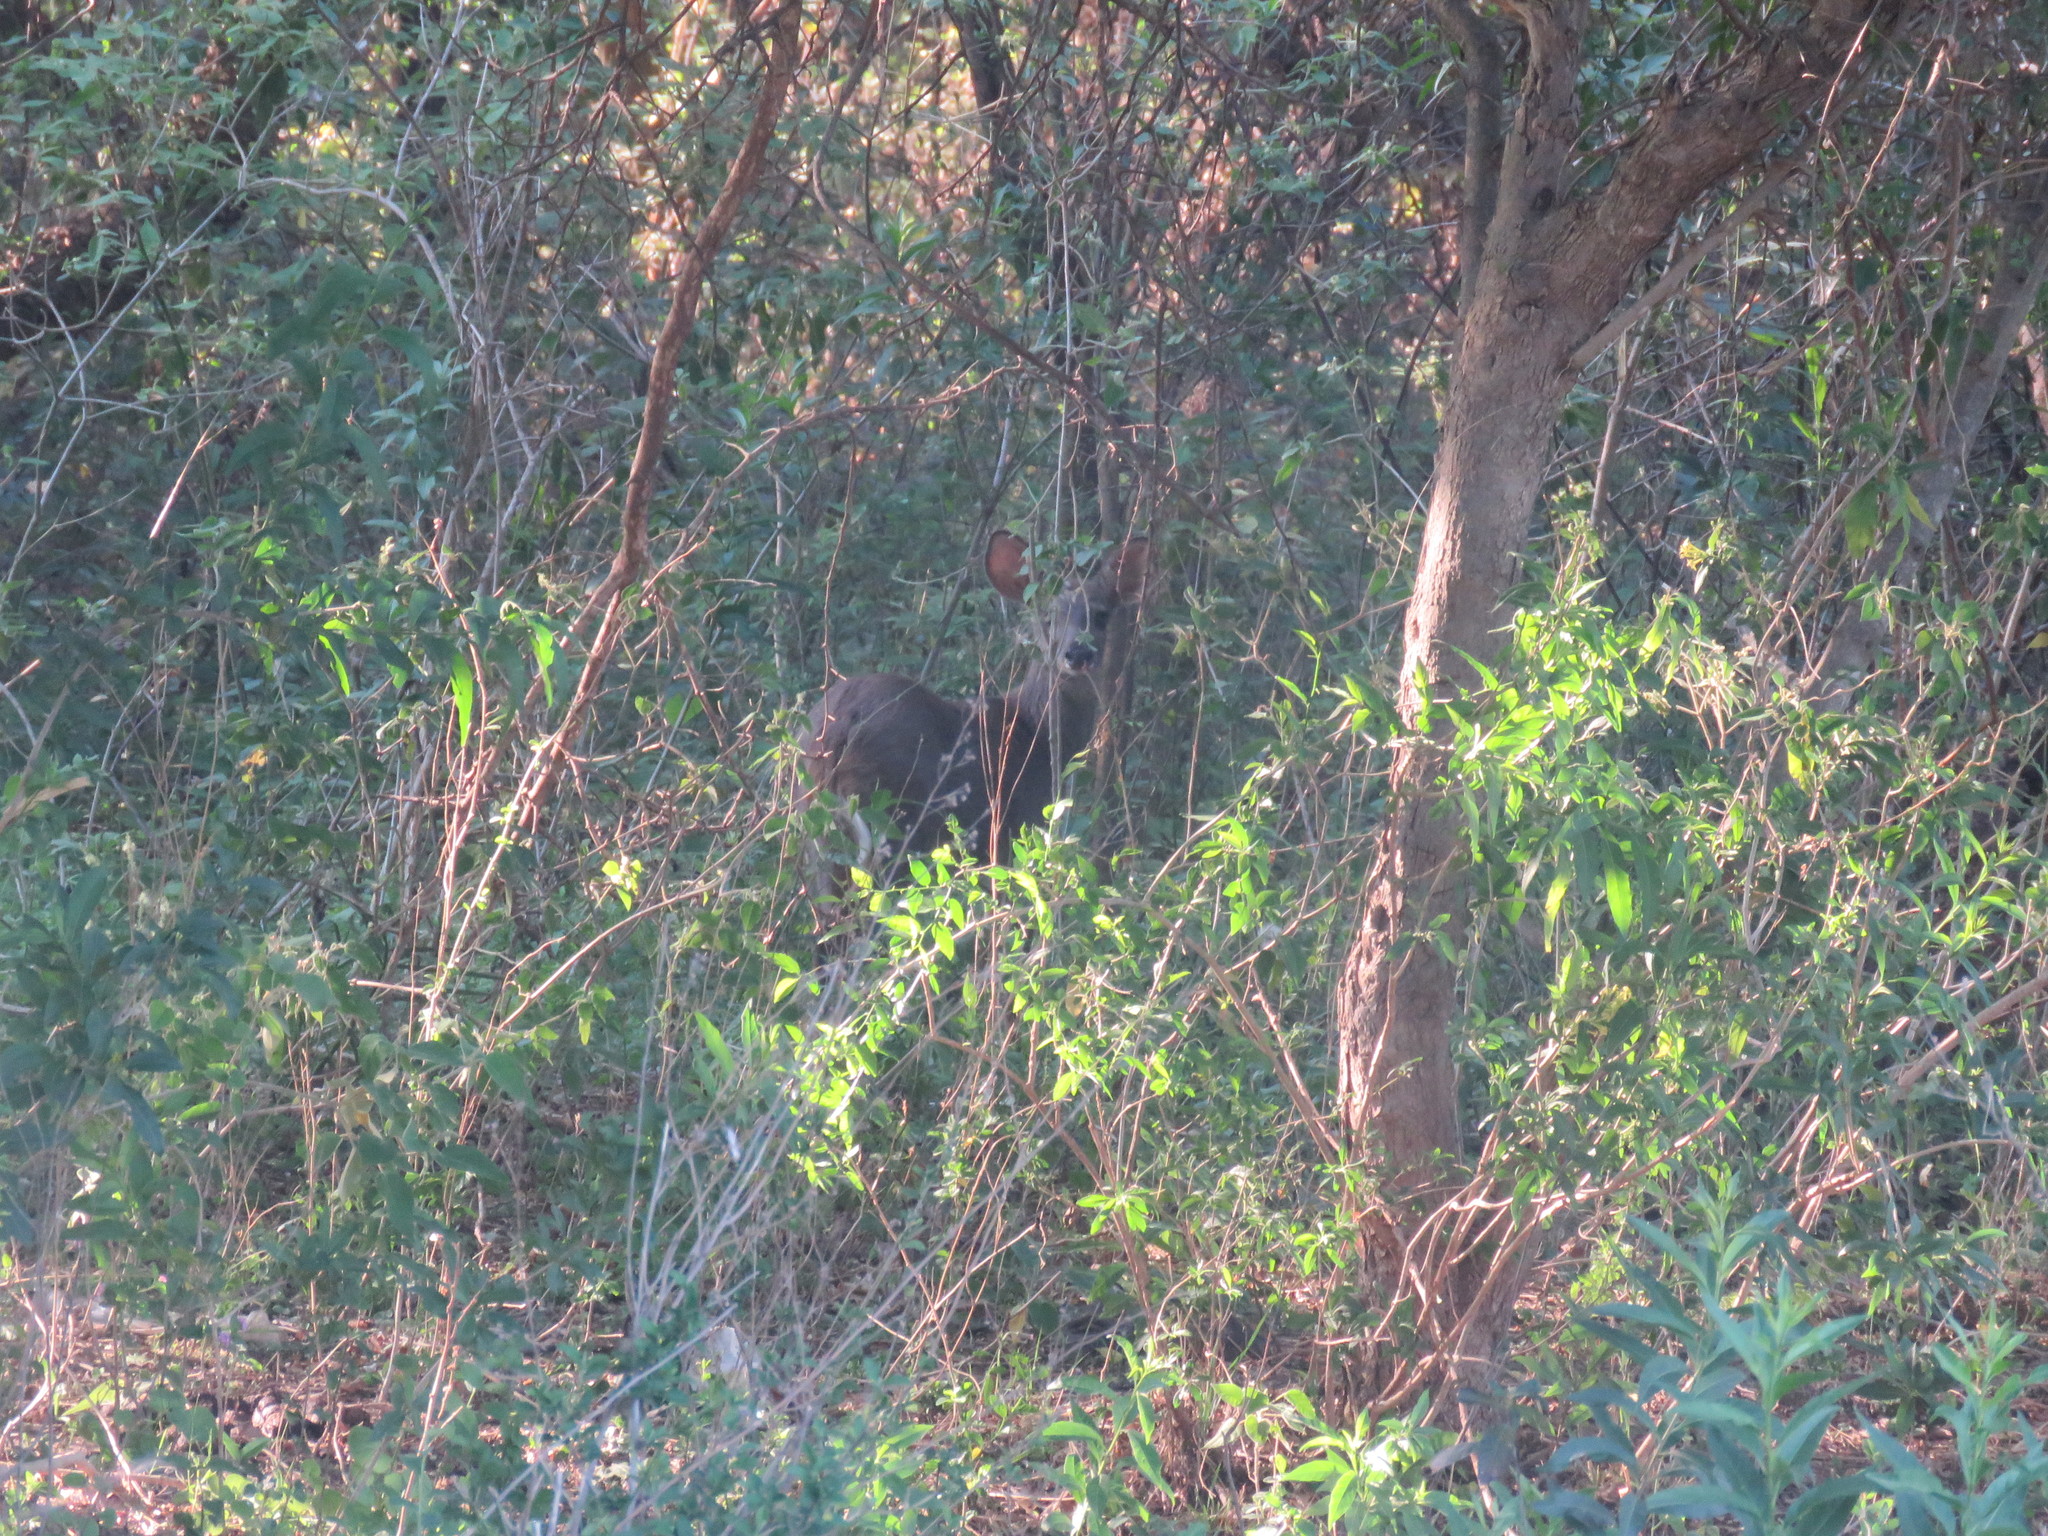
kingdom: Animalia
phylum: Chordata
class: Mammalia
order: Artiodactyla
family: Cervidae
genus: Mazama
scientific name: Mazama gouazoubira
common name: Gray brocket
